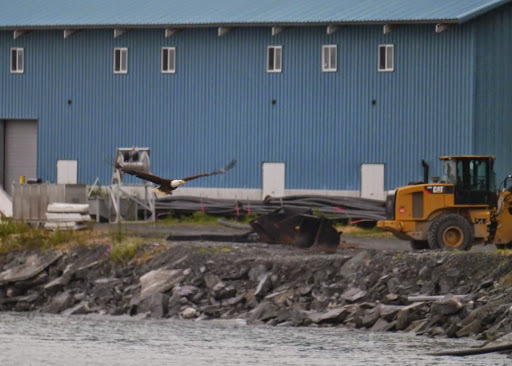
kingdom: Animalia
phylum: Chordata
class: Aves
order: Accipitriformes
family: Accipitridae
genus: Haliaeetus
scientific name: Haliaeetus leucocephalus
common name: Bald eagle
